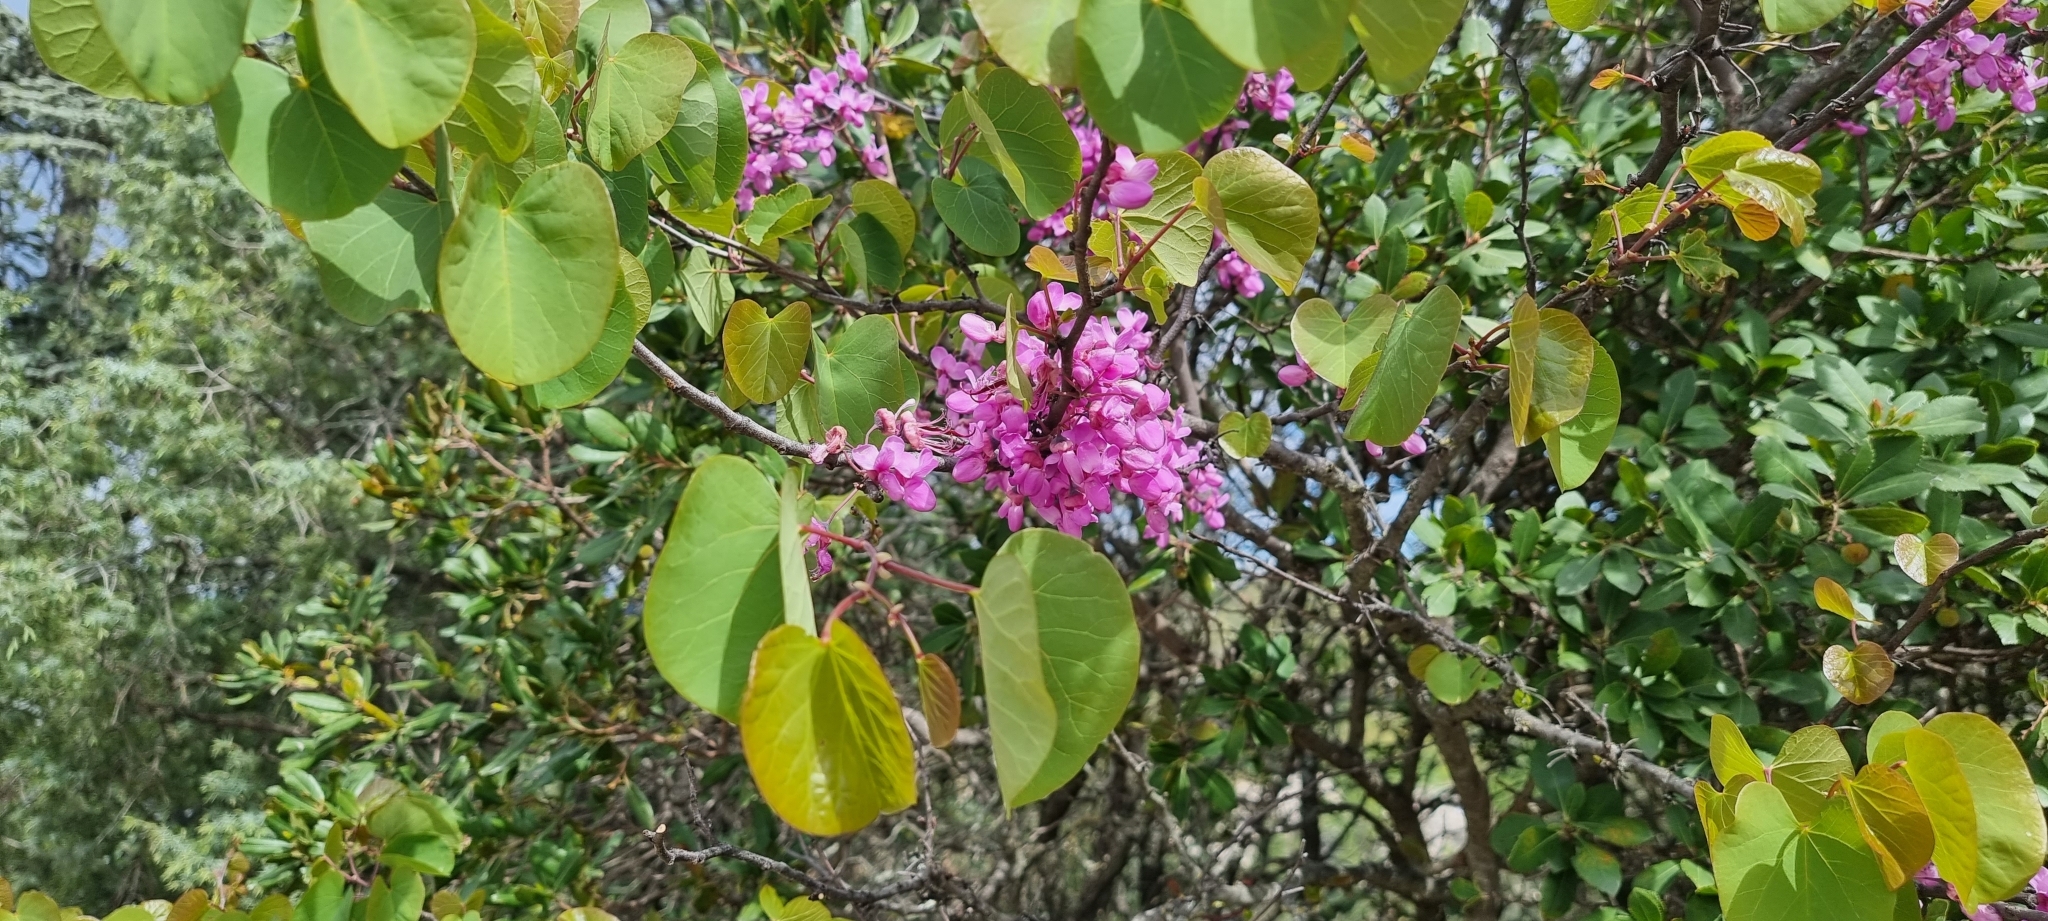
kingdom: Plantae
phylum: Tracheophyta
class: Magnoliopsida
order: Fabales
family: Fabaceae
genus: Cercis
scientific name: Cercis siliquastrum
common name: Judas tree
